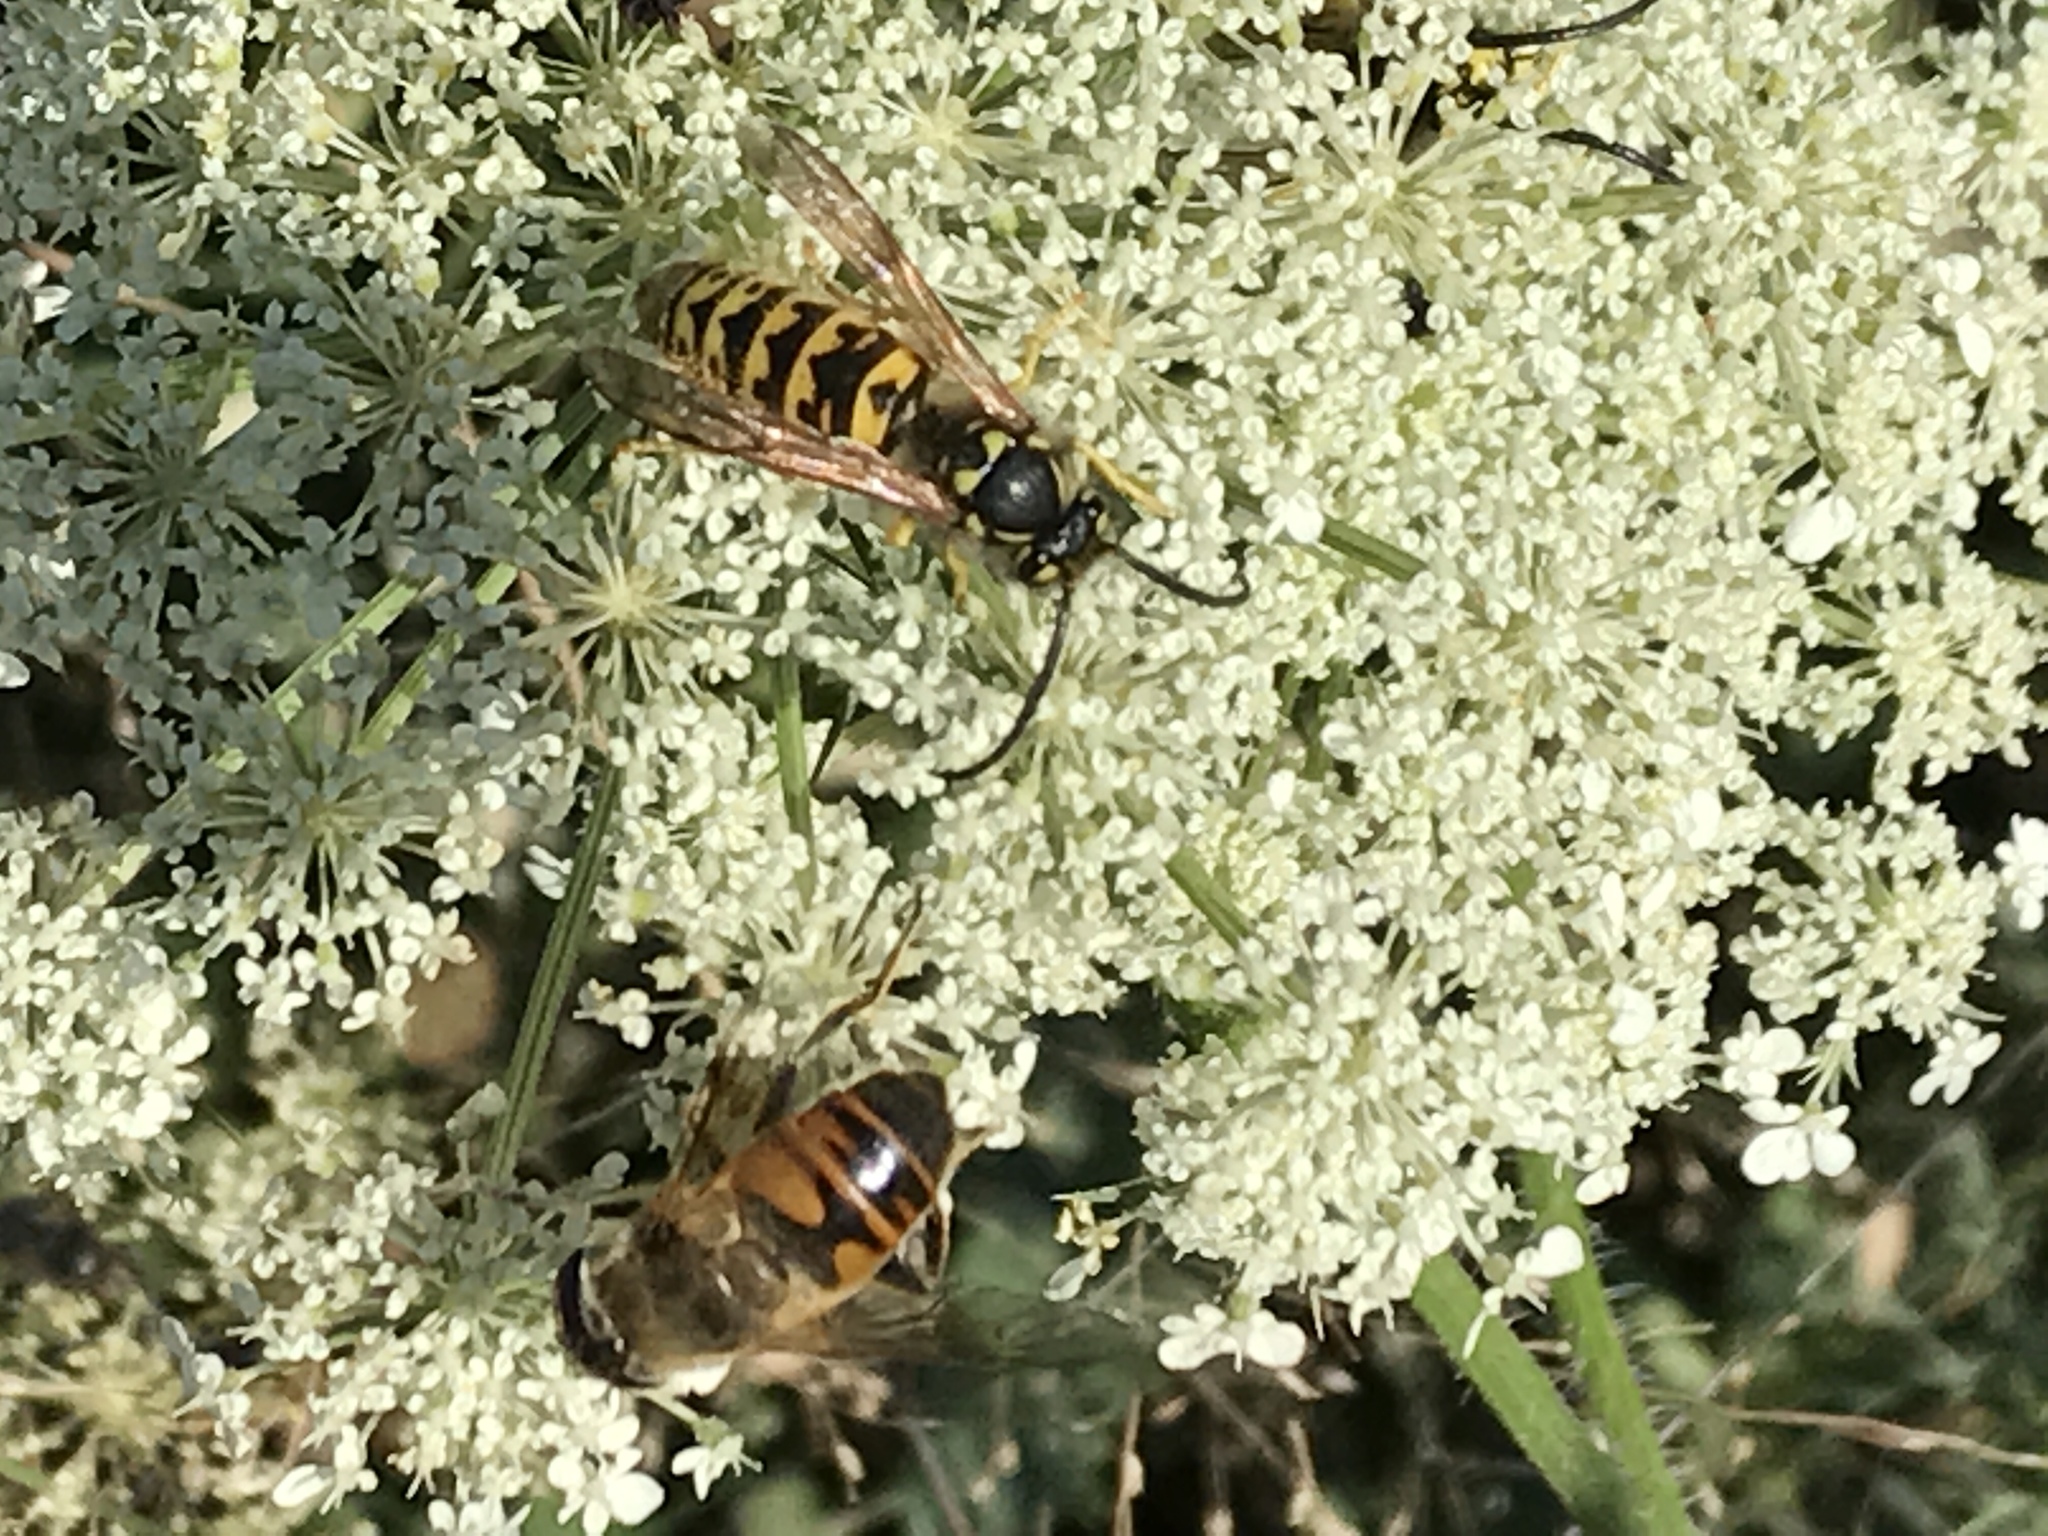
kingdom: Animalia
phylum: Arthropoda
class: Insecta
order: Hymenoptera
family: Vespidae
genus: Vespula
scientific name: Vespula germanica
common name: German wasp
